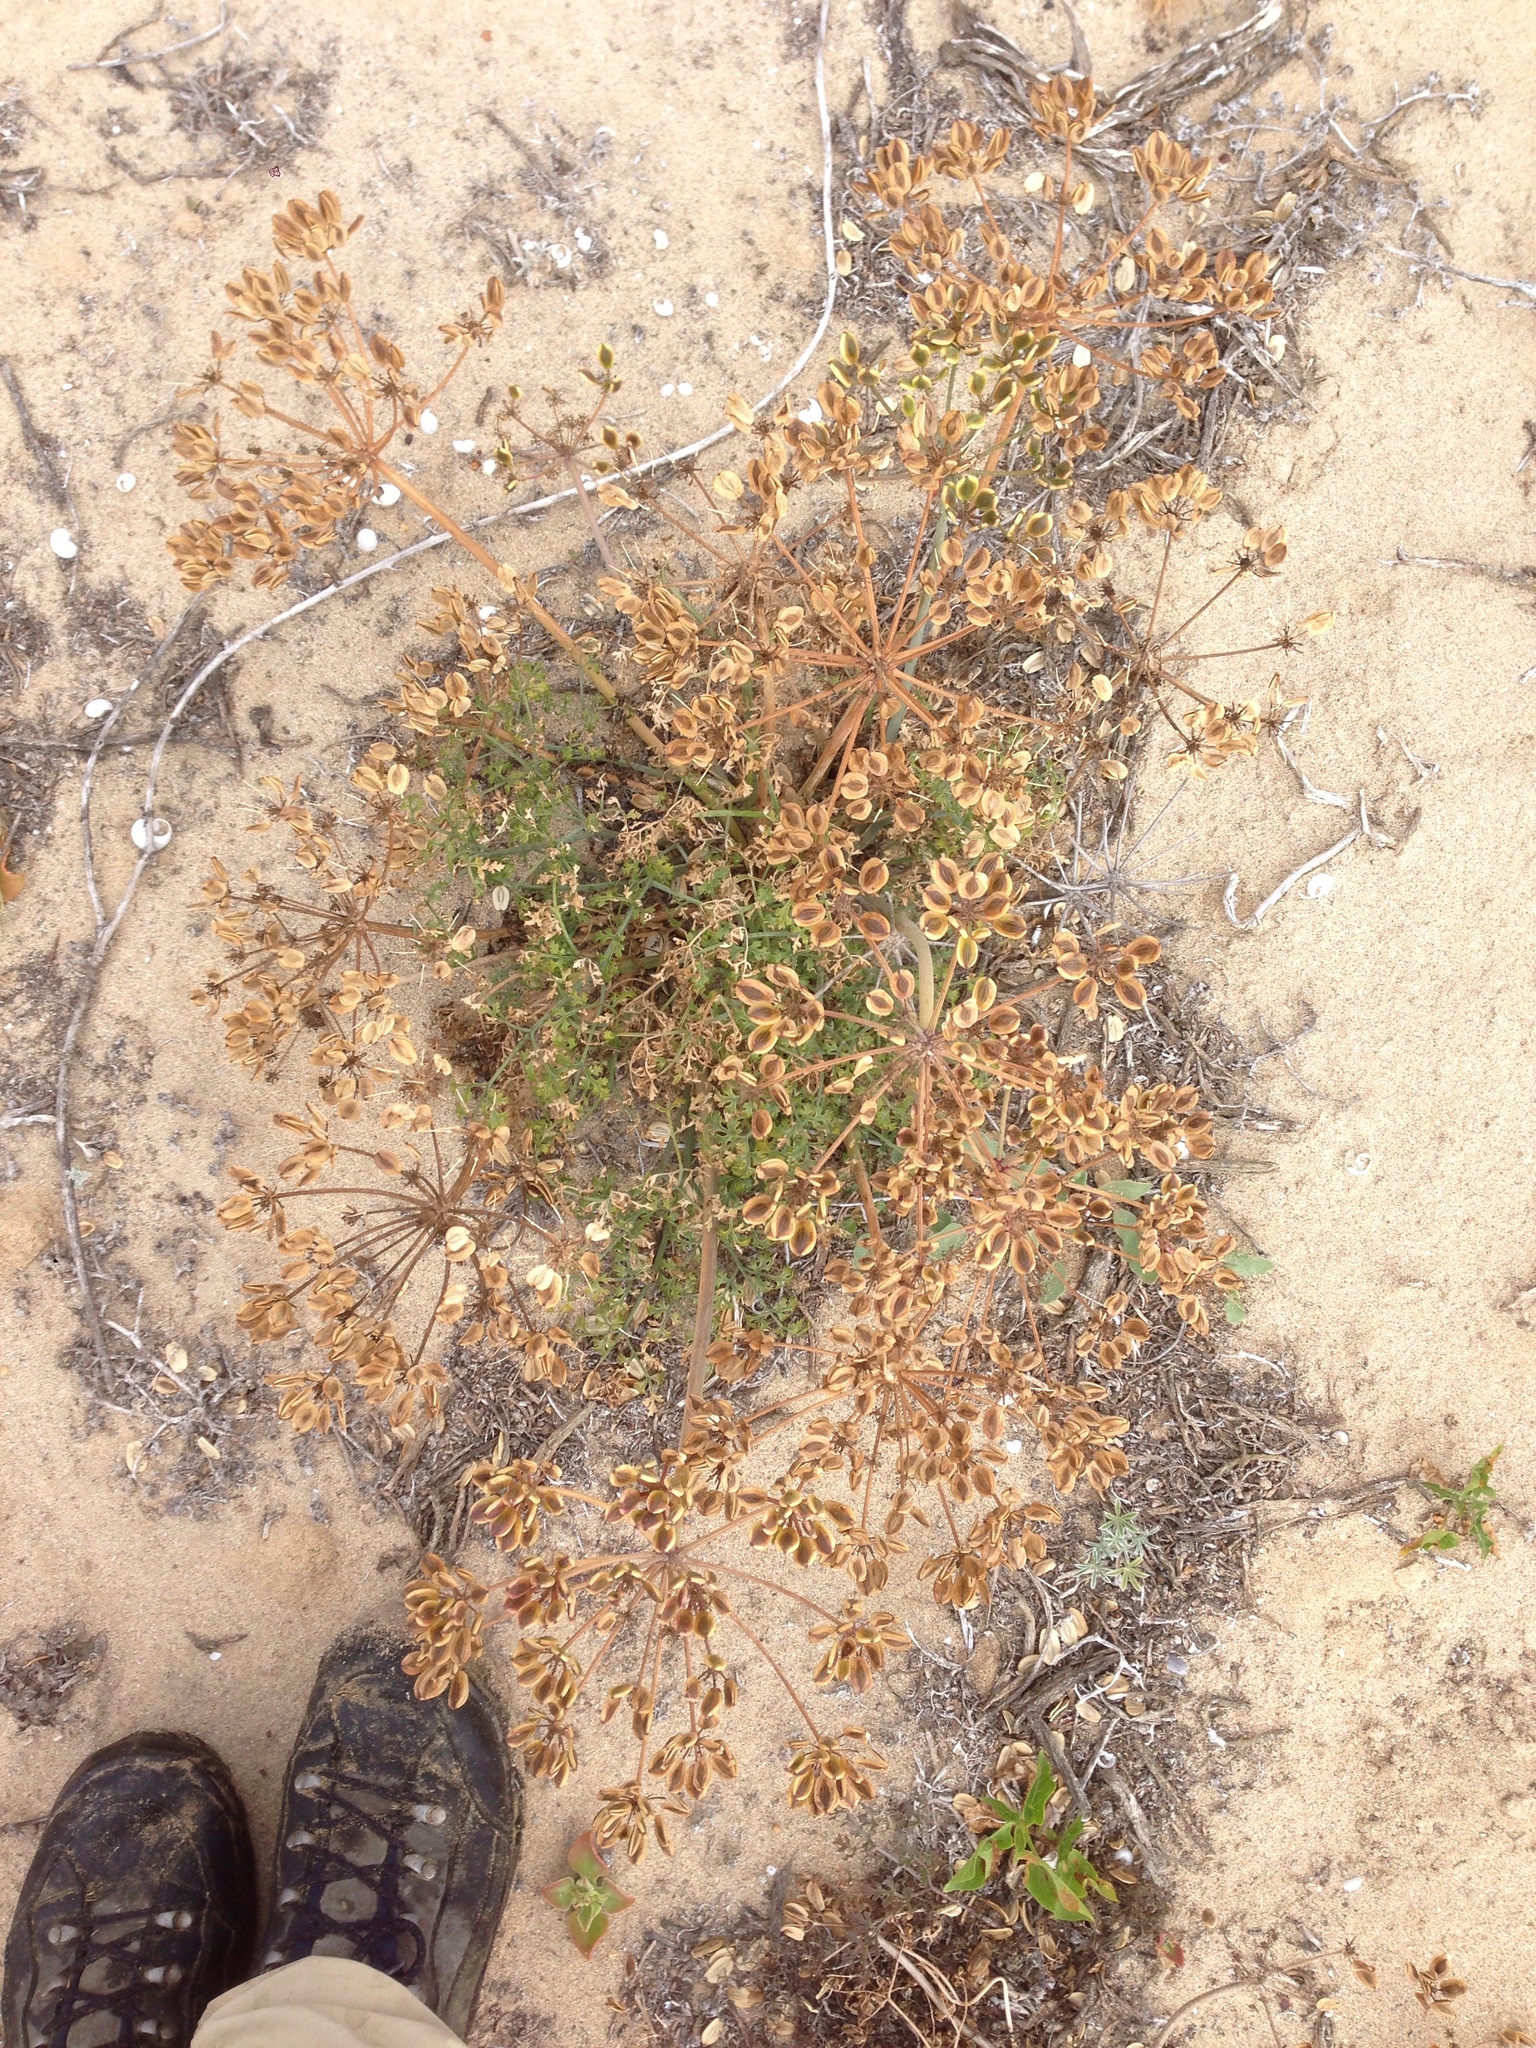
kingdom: Plantae
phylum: Tracheophyta
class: Magnoliopsida
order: Apiales
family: Apiaceae
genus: Lomatium
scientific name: Lomatium insulare
